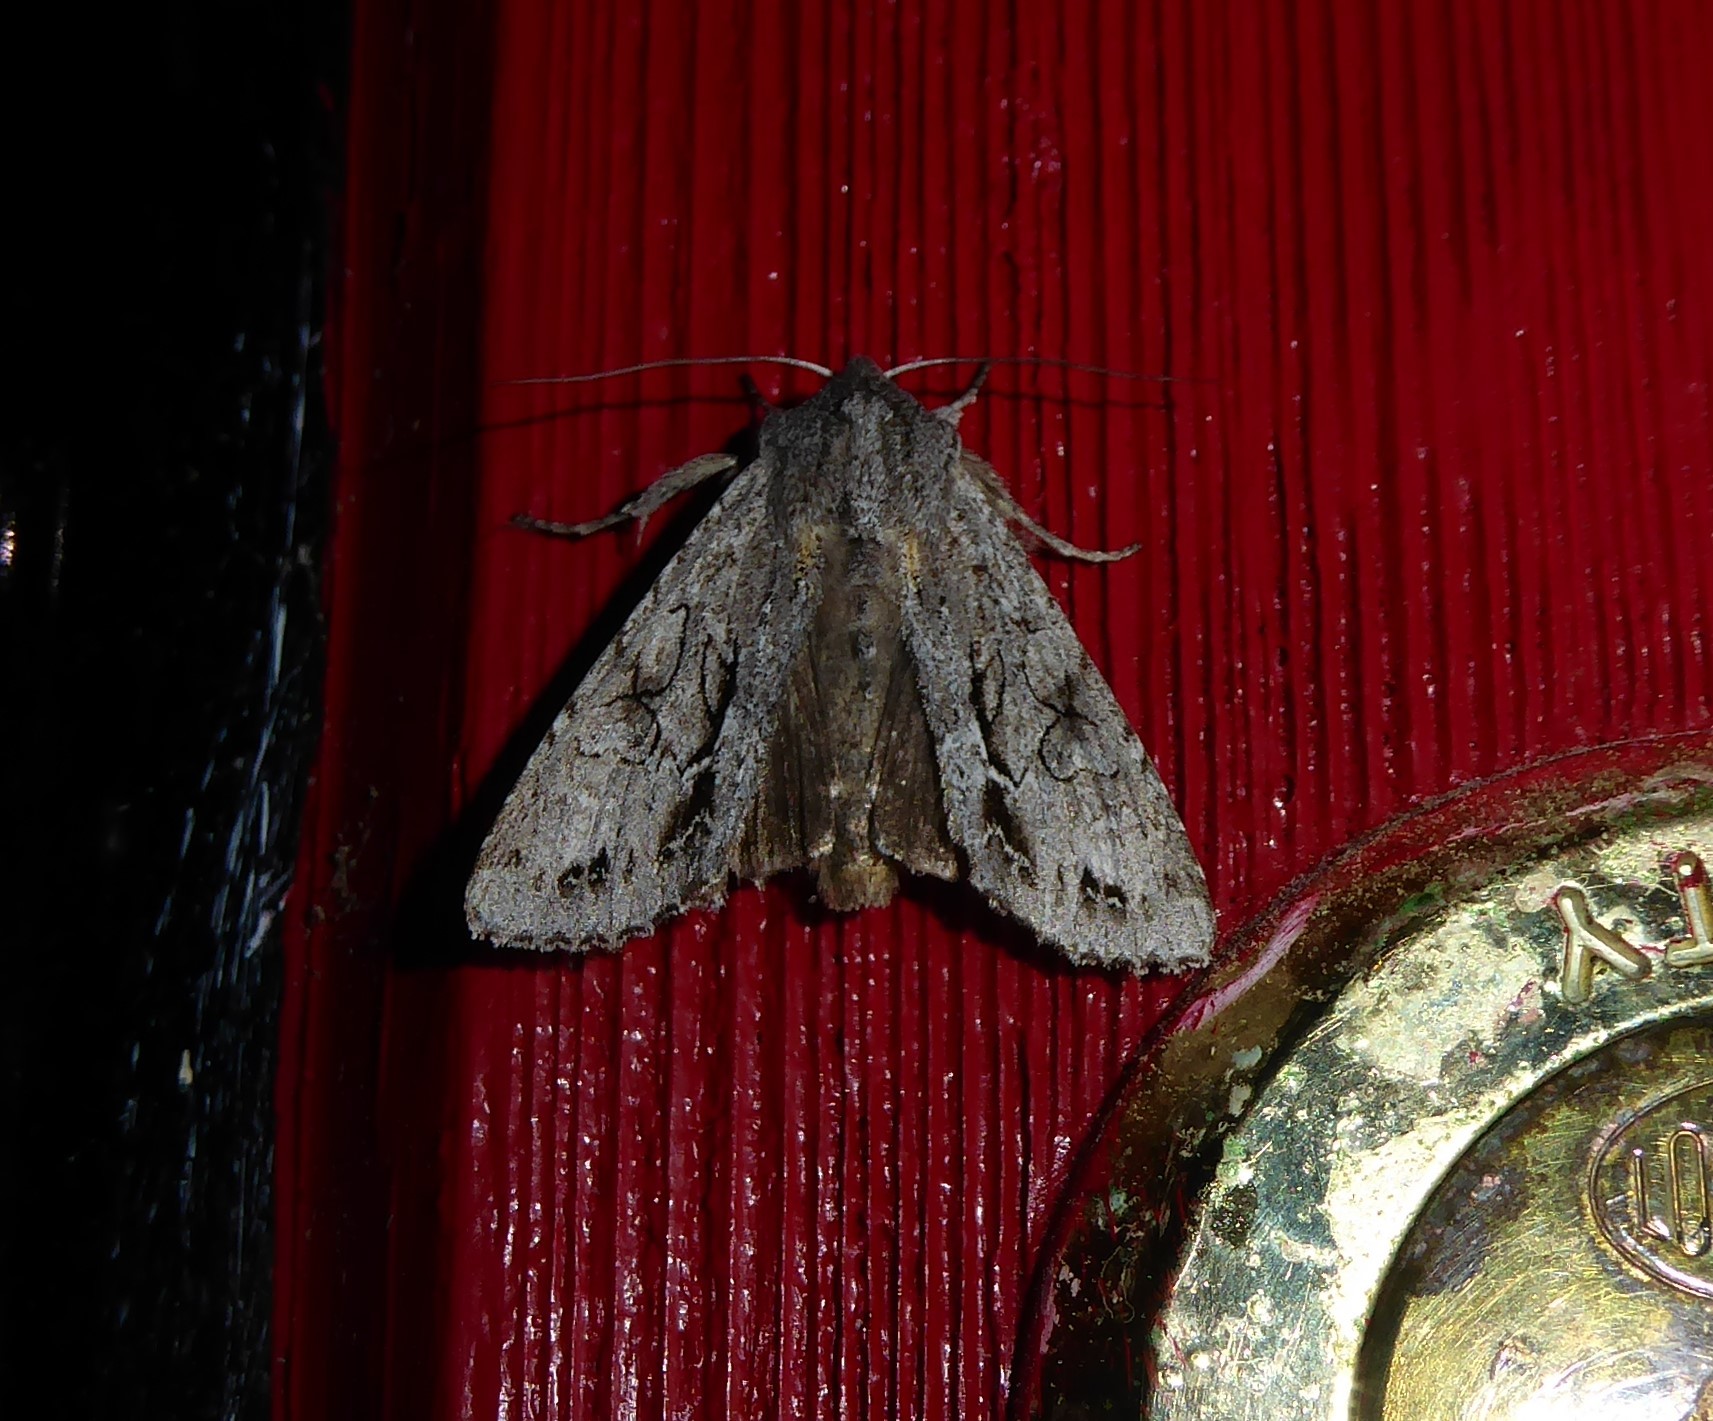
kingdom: Animalia
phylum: Arthropoda
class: Insecta
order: Lepidoptera
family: Noctuidae
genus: Ichneutica
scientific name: Ichneutica
